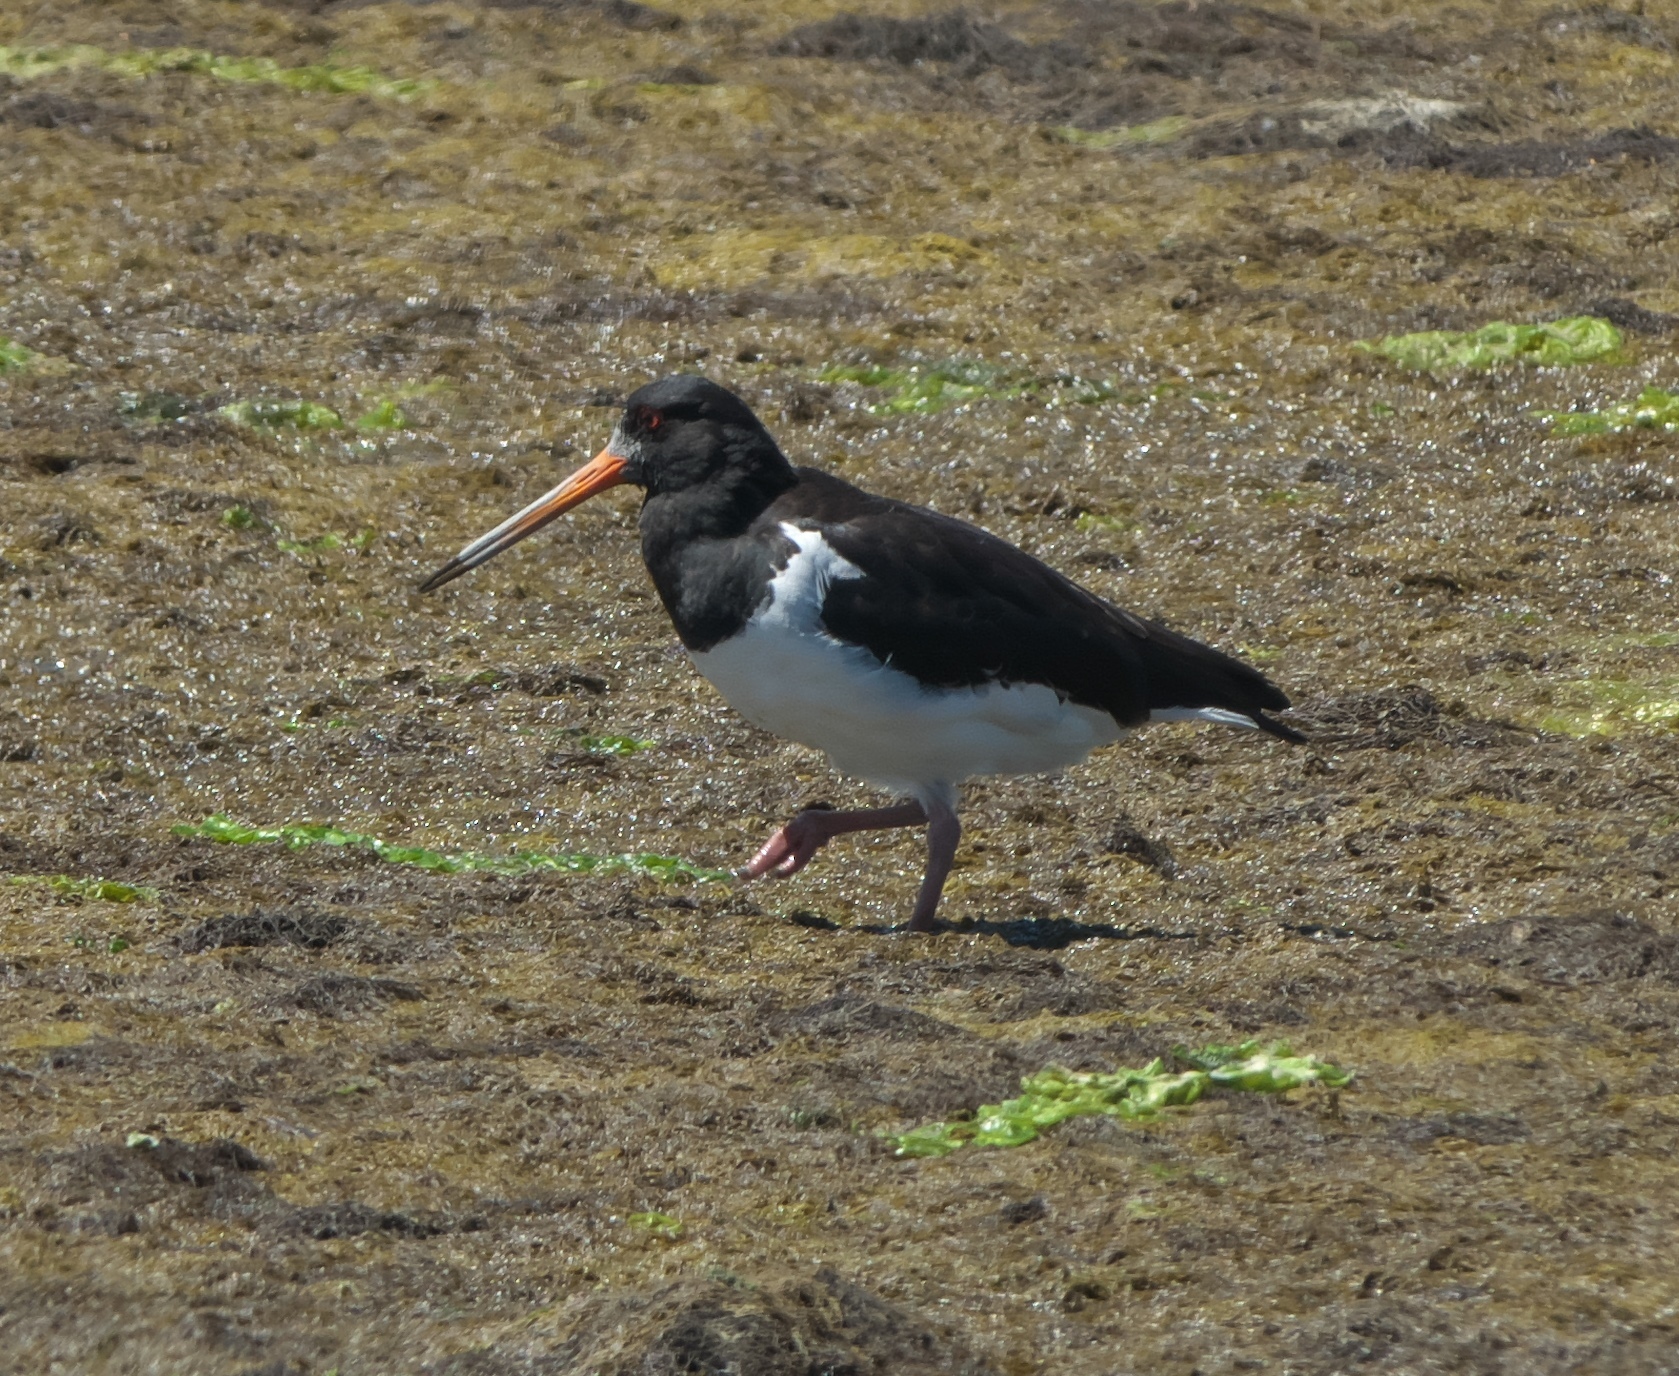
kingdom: Animalia
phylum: Chordata
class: Aves
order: Charadriiformes
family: Haematopodidae
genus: Haematopus
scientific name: Haematopus finschi
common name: South island oystercatcher
